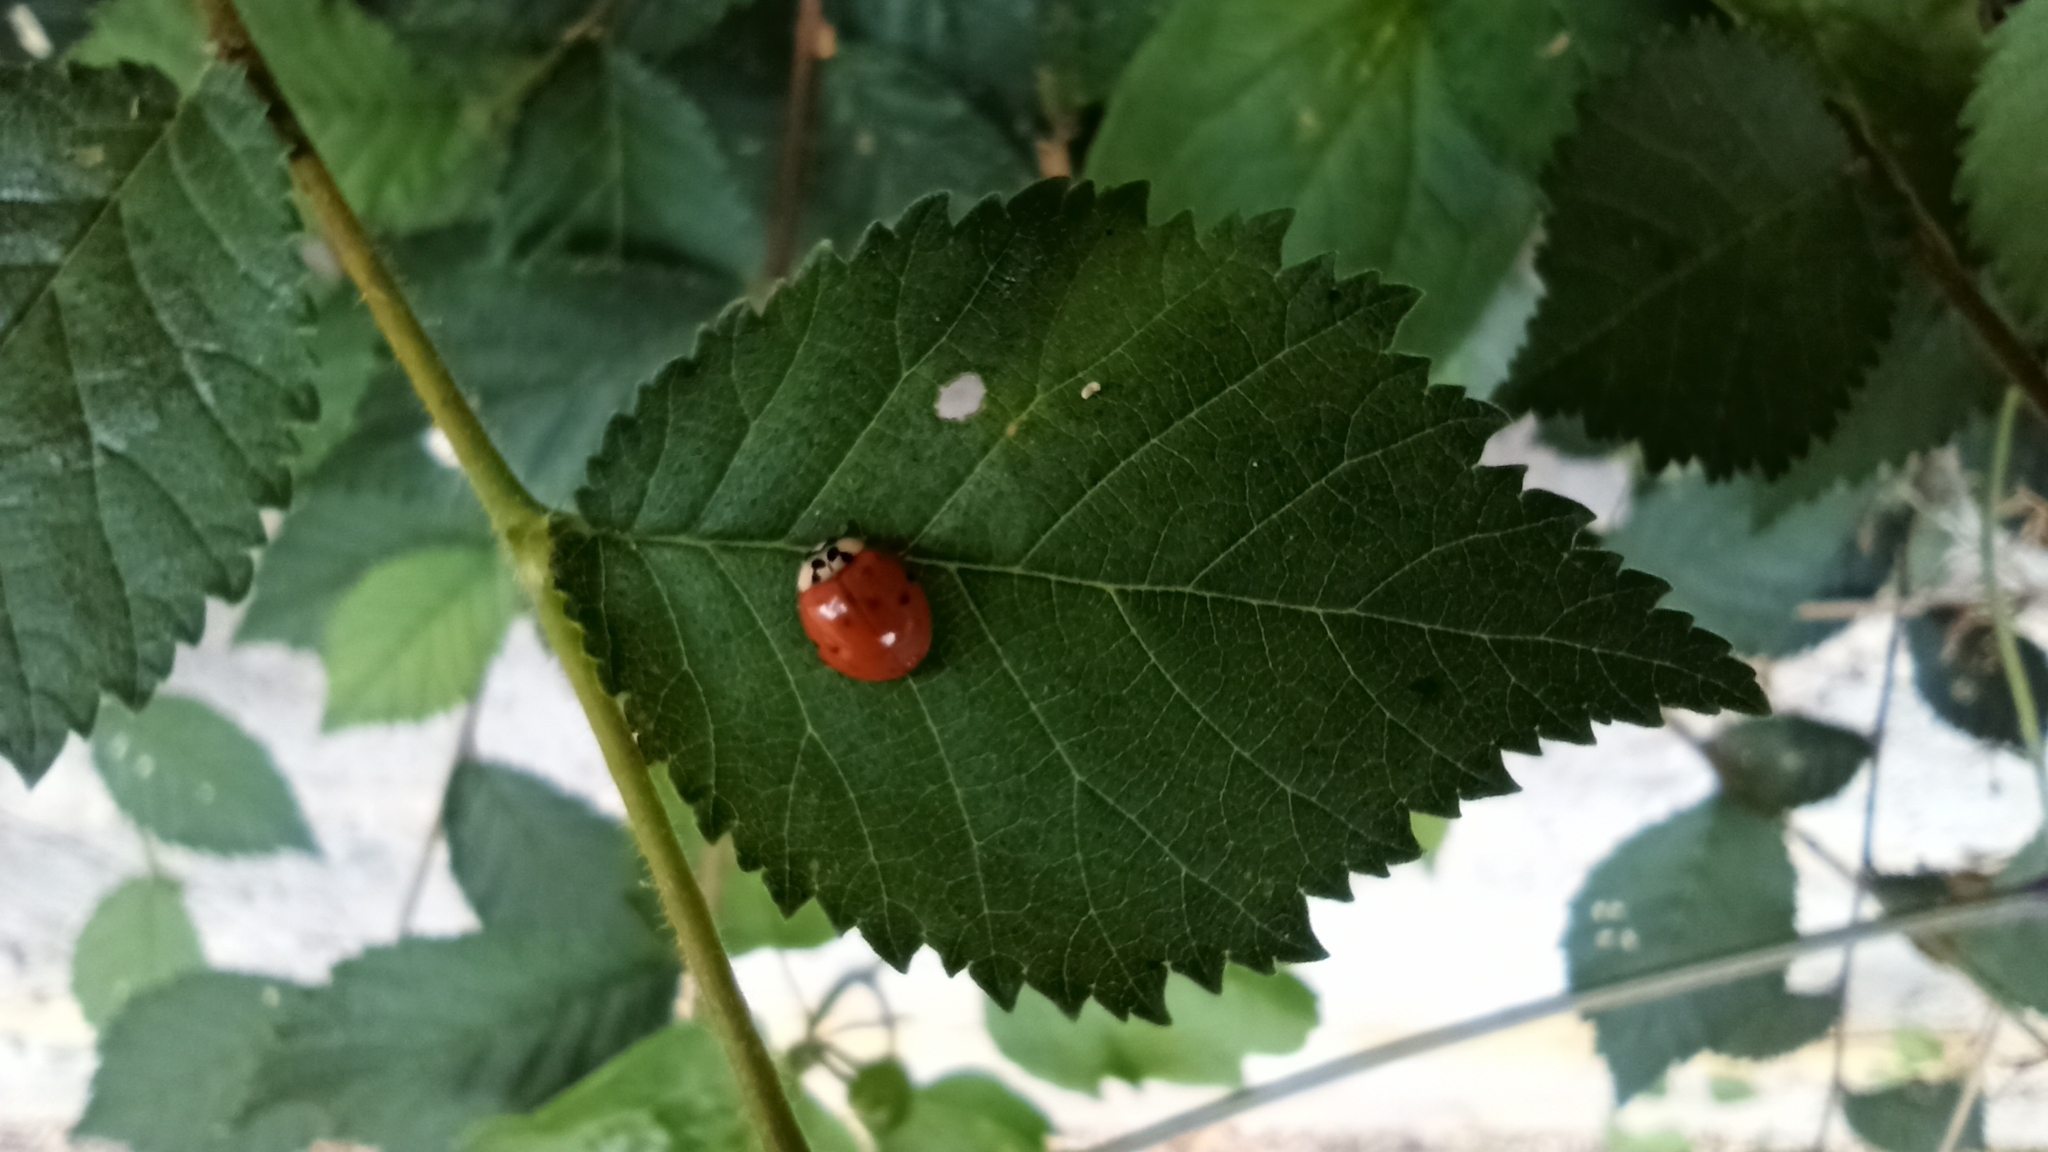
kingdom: Animalia
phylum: Arthropoda
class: Insecta
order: Coleoptera
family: Coccinellidae
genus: Harmonia
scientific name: Harmonia axyridis
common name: Harlequin ladybird
